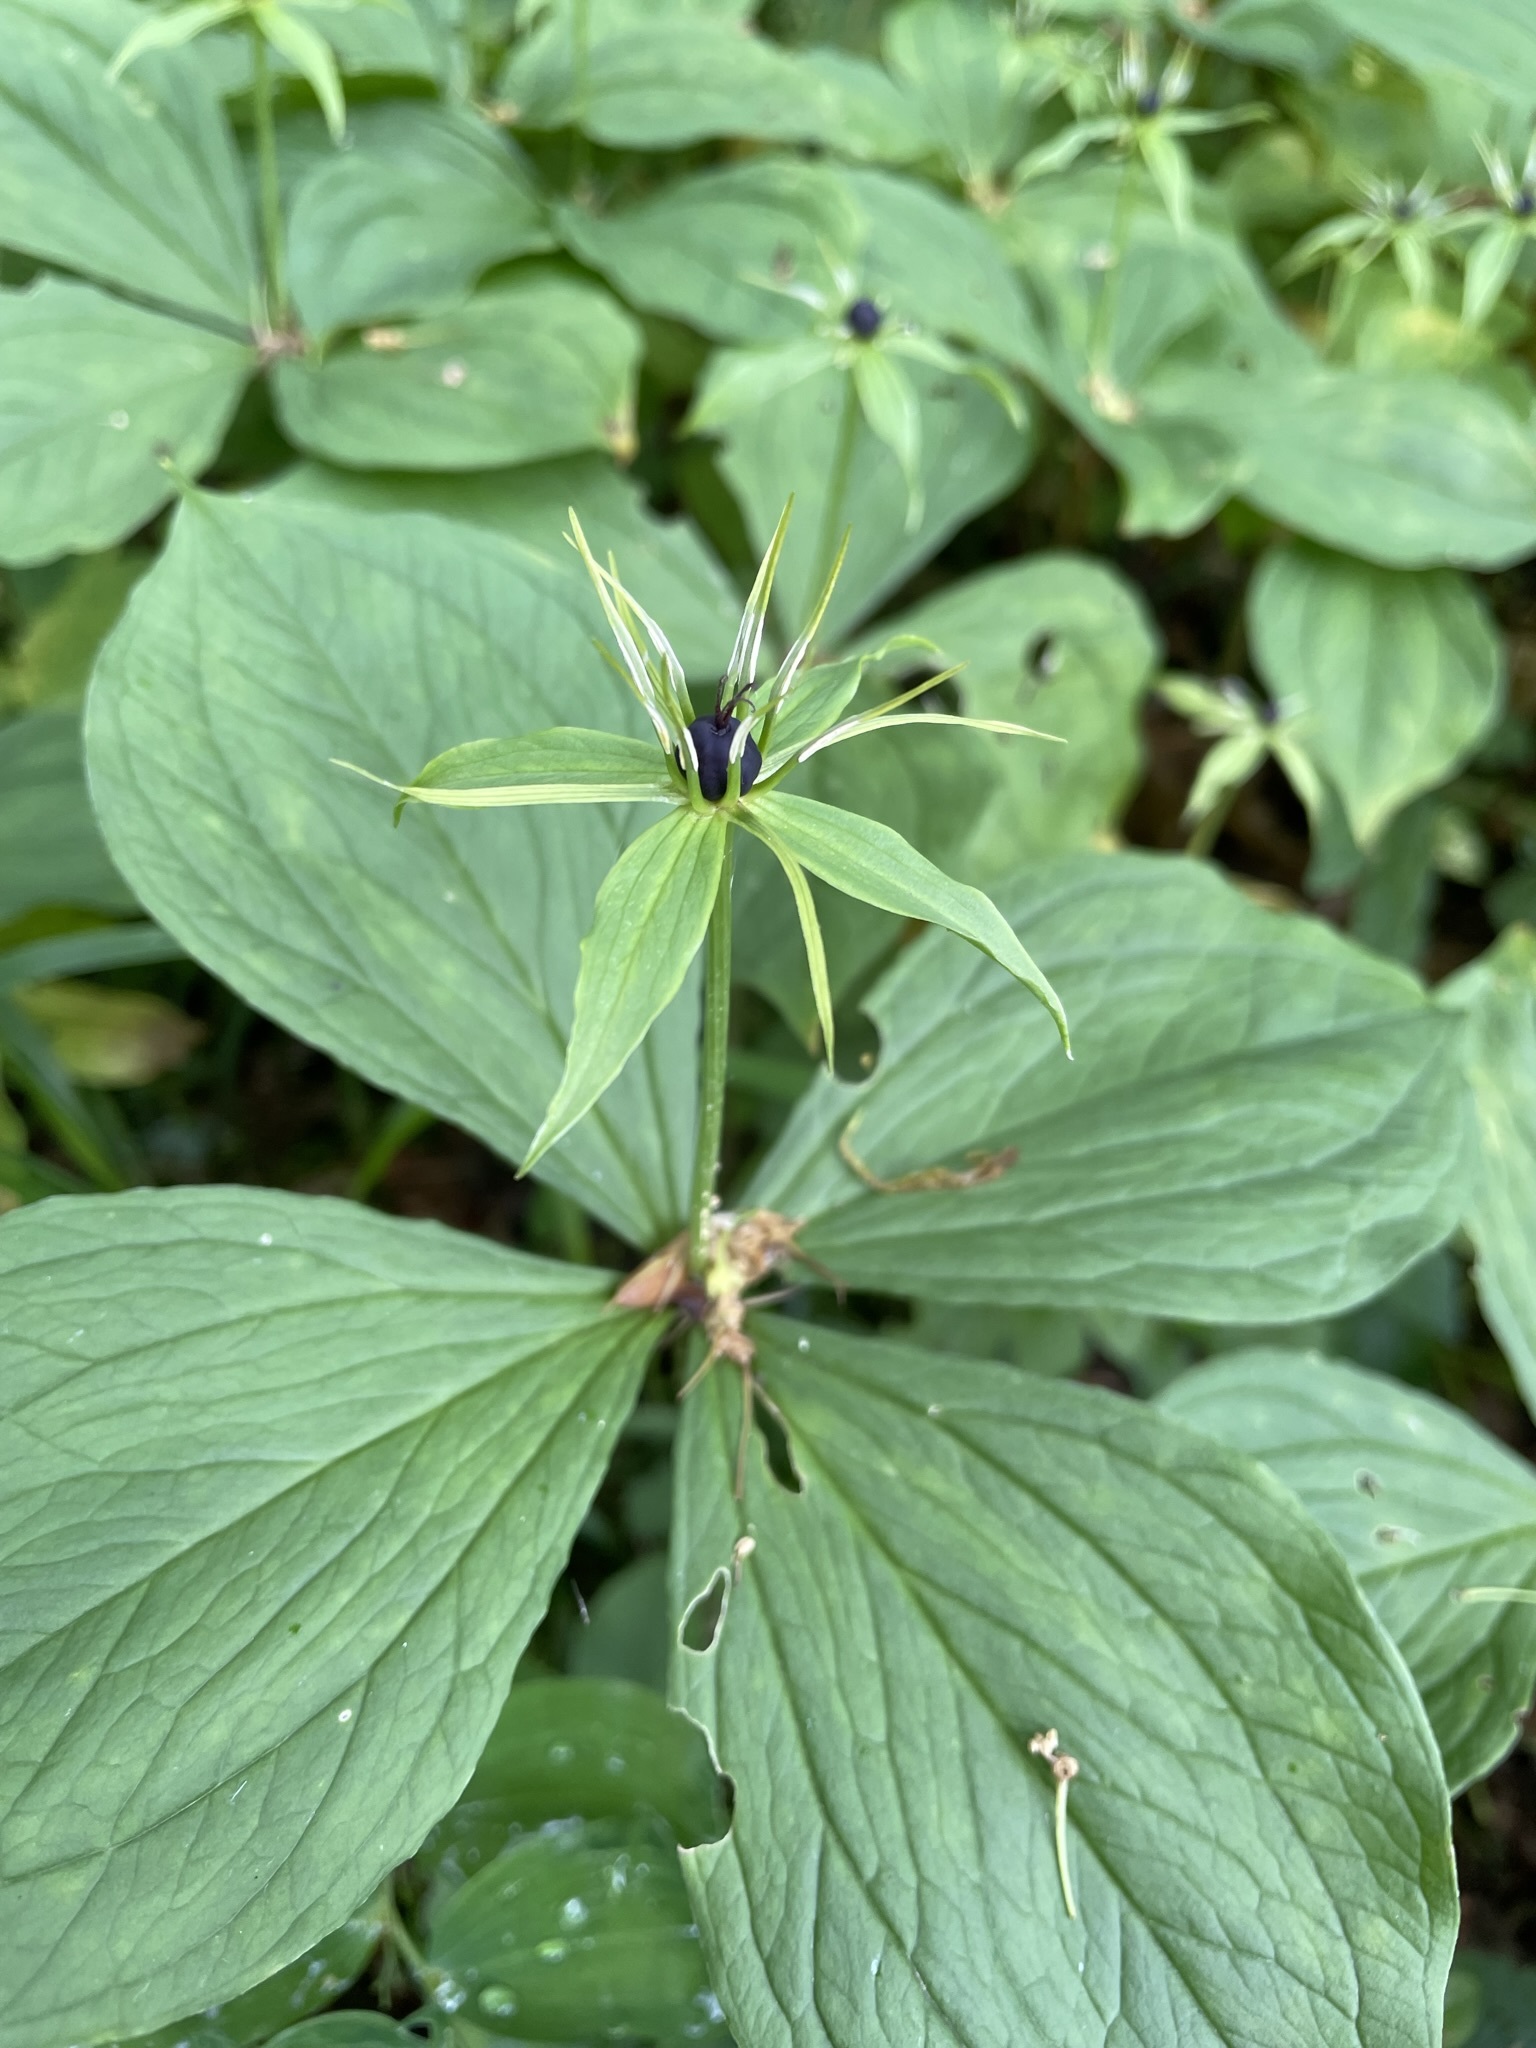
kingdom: Plantae
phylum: Tracheophyta
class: Liliopsida
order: Liliales
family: Melanthiaceae
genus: Paris
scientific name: Paris quadrifolia
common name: Herb-paris
